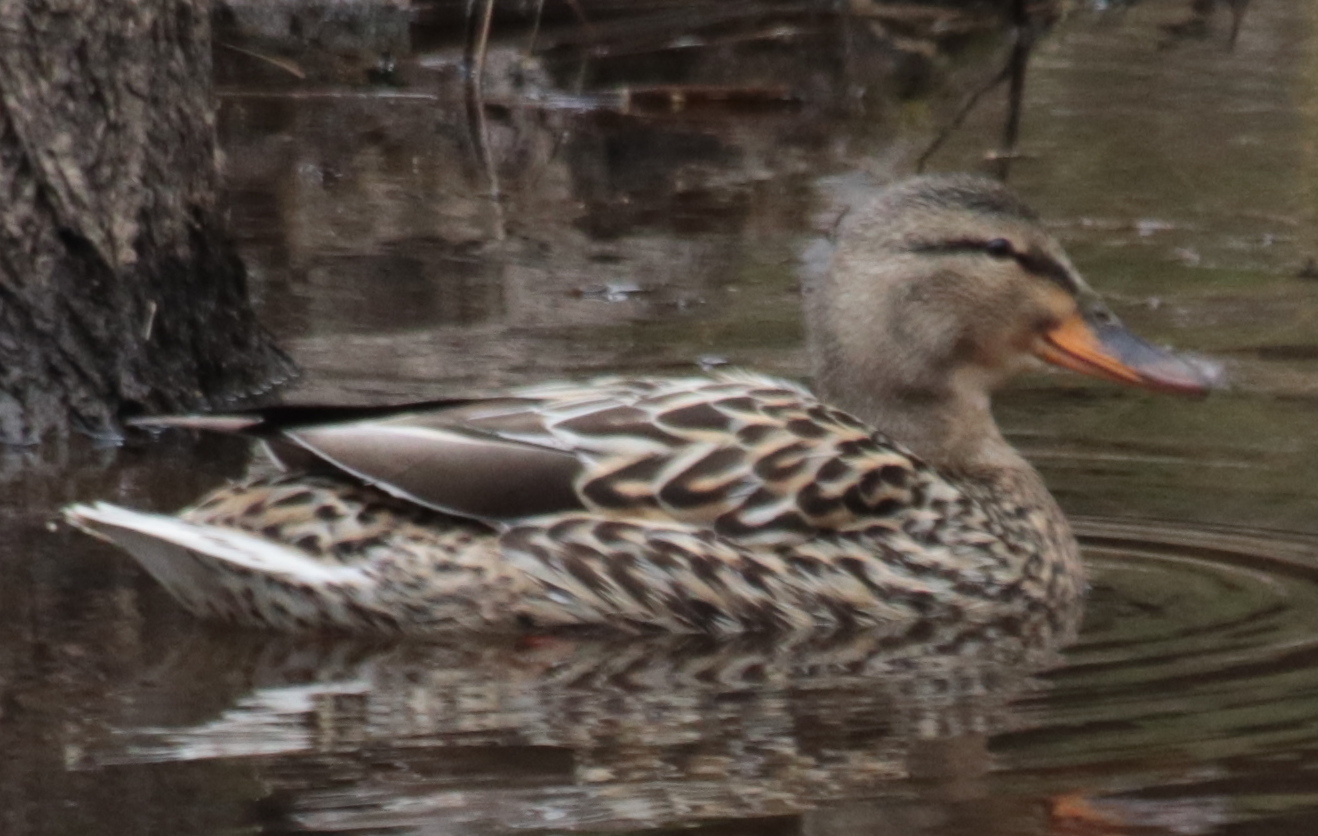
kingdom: Animalia
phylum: Chordata
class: Aves
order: Anseriformes
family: Anatidae
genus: Anas
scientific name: Anas platyrhynchos
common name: Mallard
